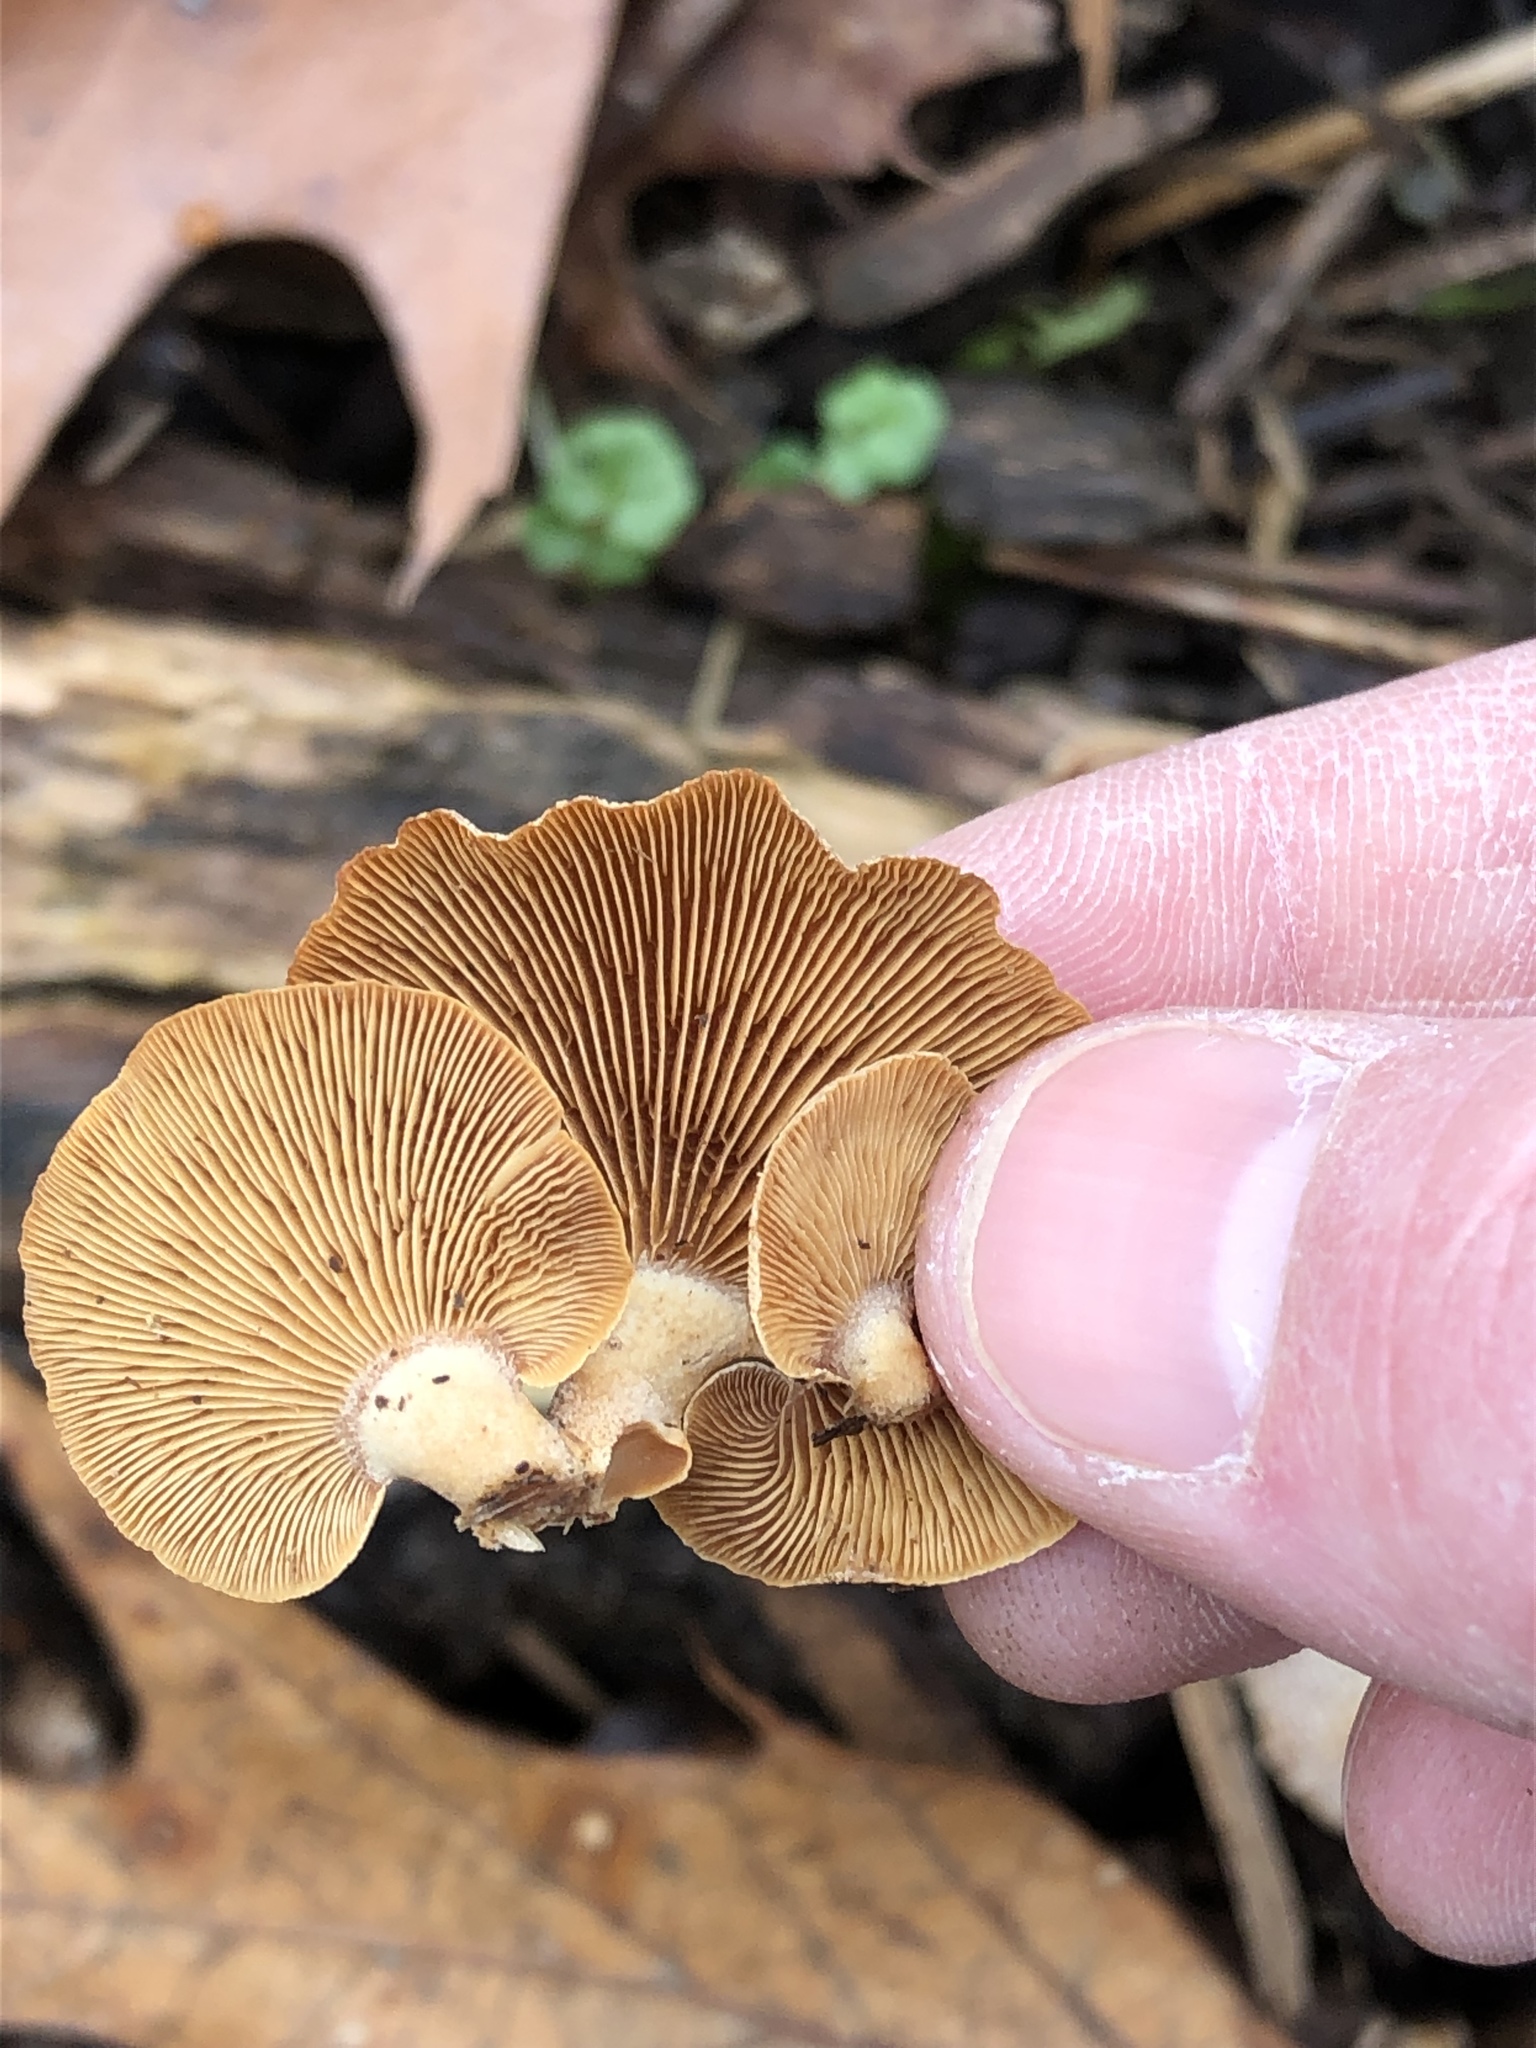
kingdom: Fungi
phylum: Basidiomycota
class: Agaricomycetes
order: Agaricales
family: Mycenaceae
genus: Panellus
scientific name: Panellus stipticus
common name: Bitter oysterling
